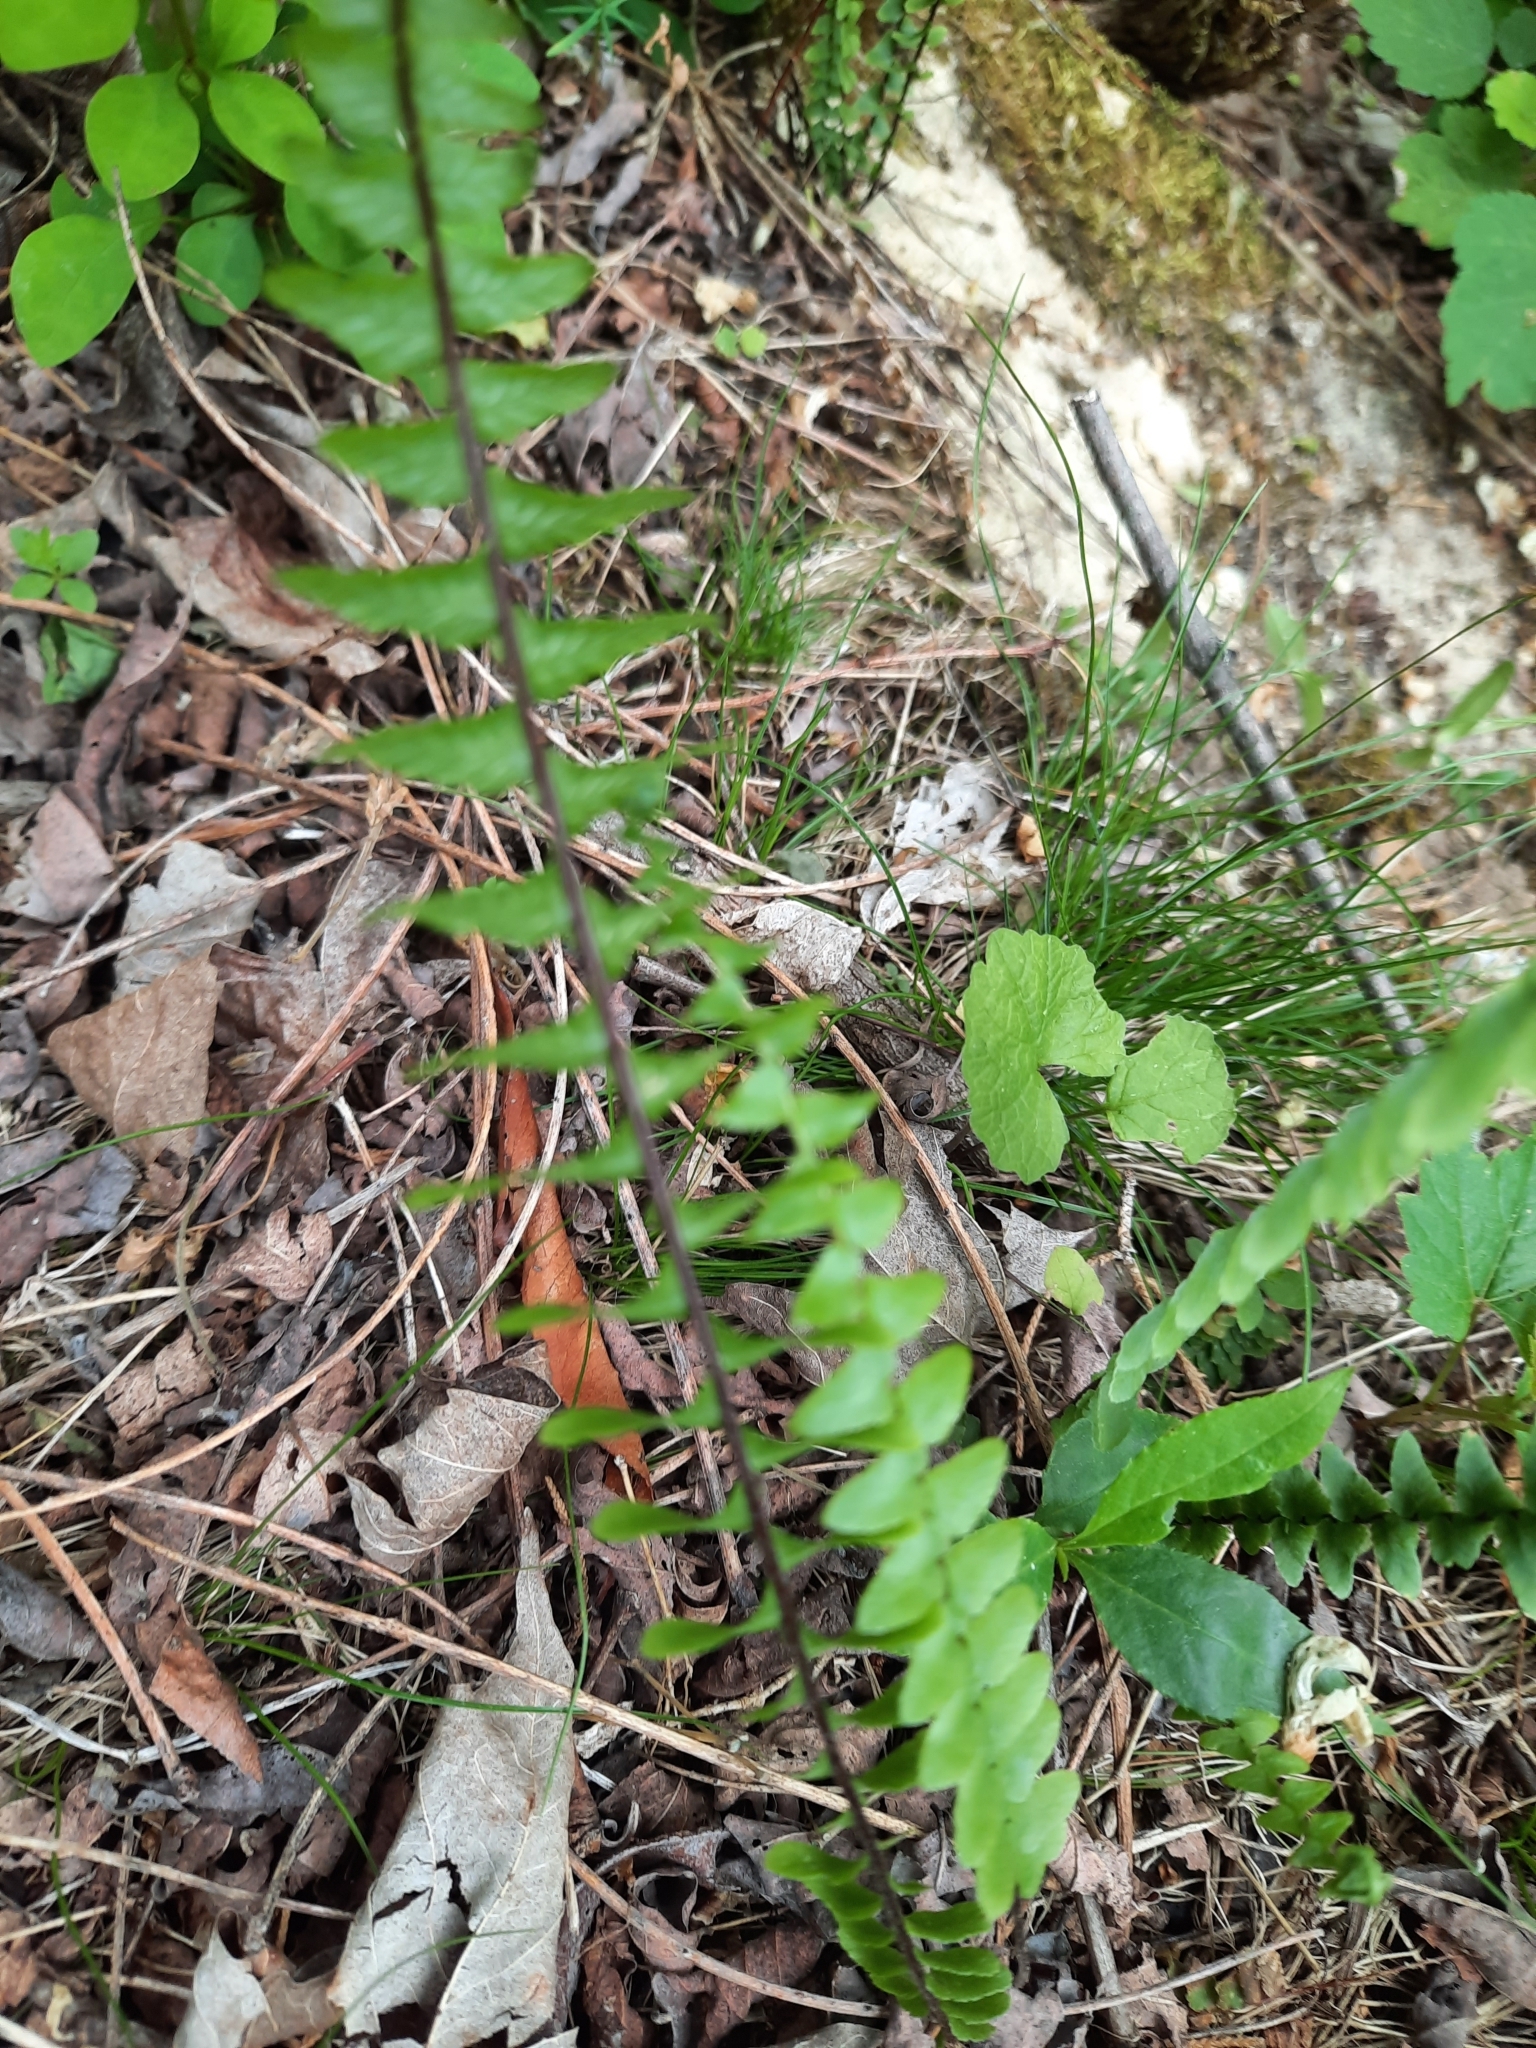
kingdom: Plantae
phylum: Tracheophyta
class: Polypodiopsida
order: Polypodiales
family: Aspleniaceae
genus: Asplenium
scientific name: Asplenium platyneuron
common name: Ebony spleenwort
